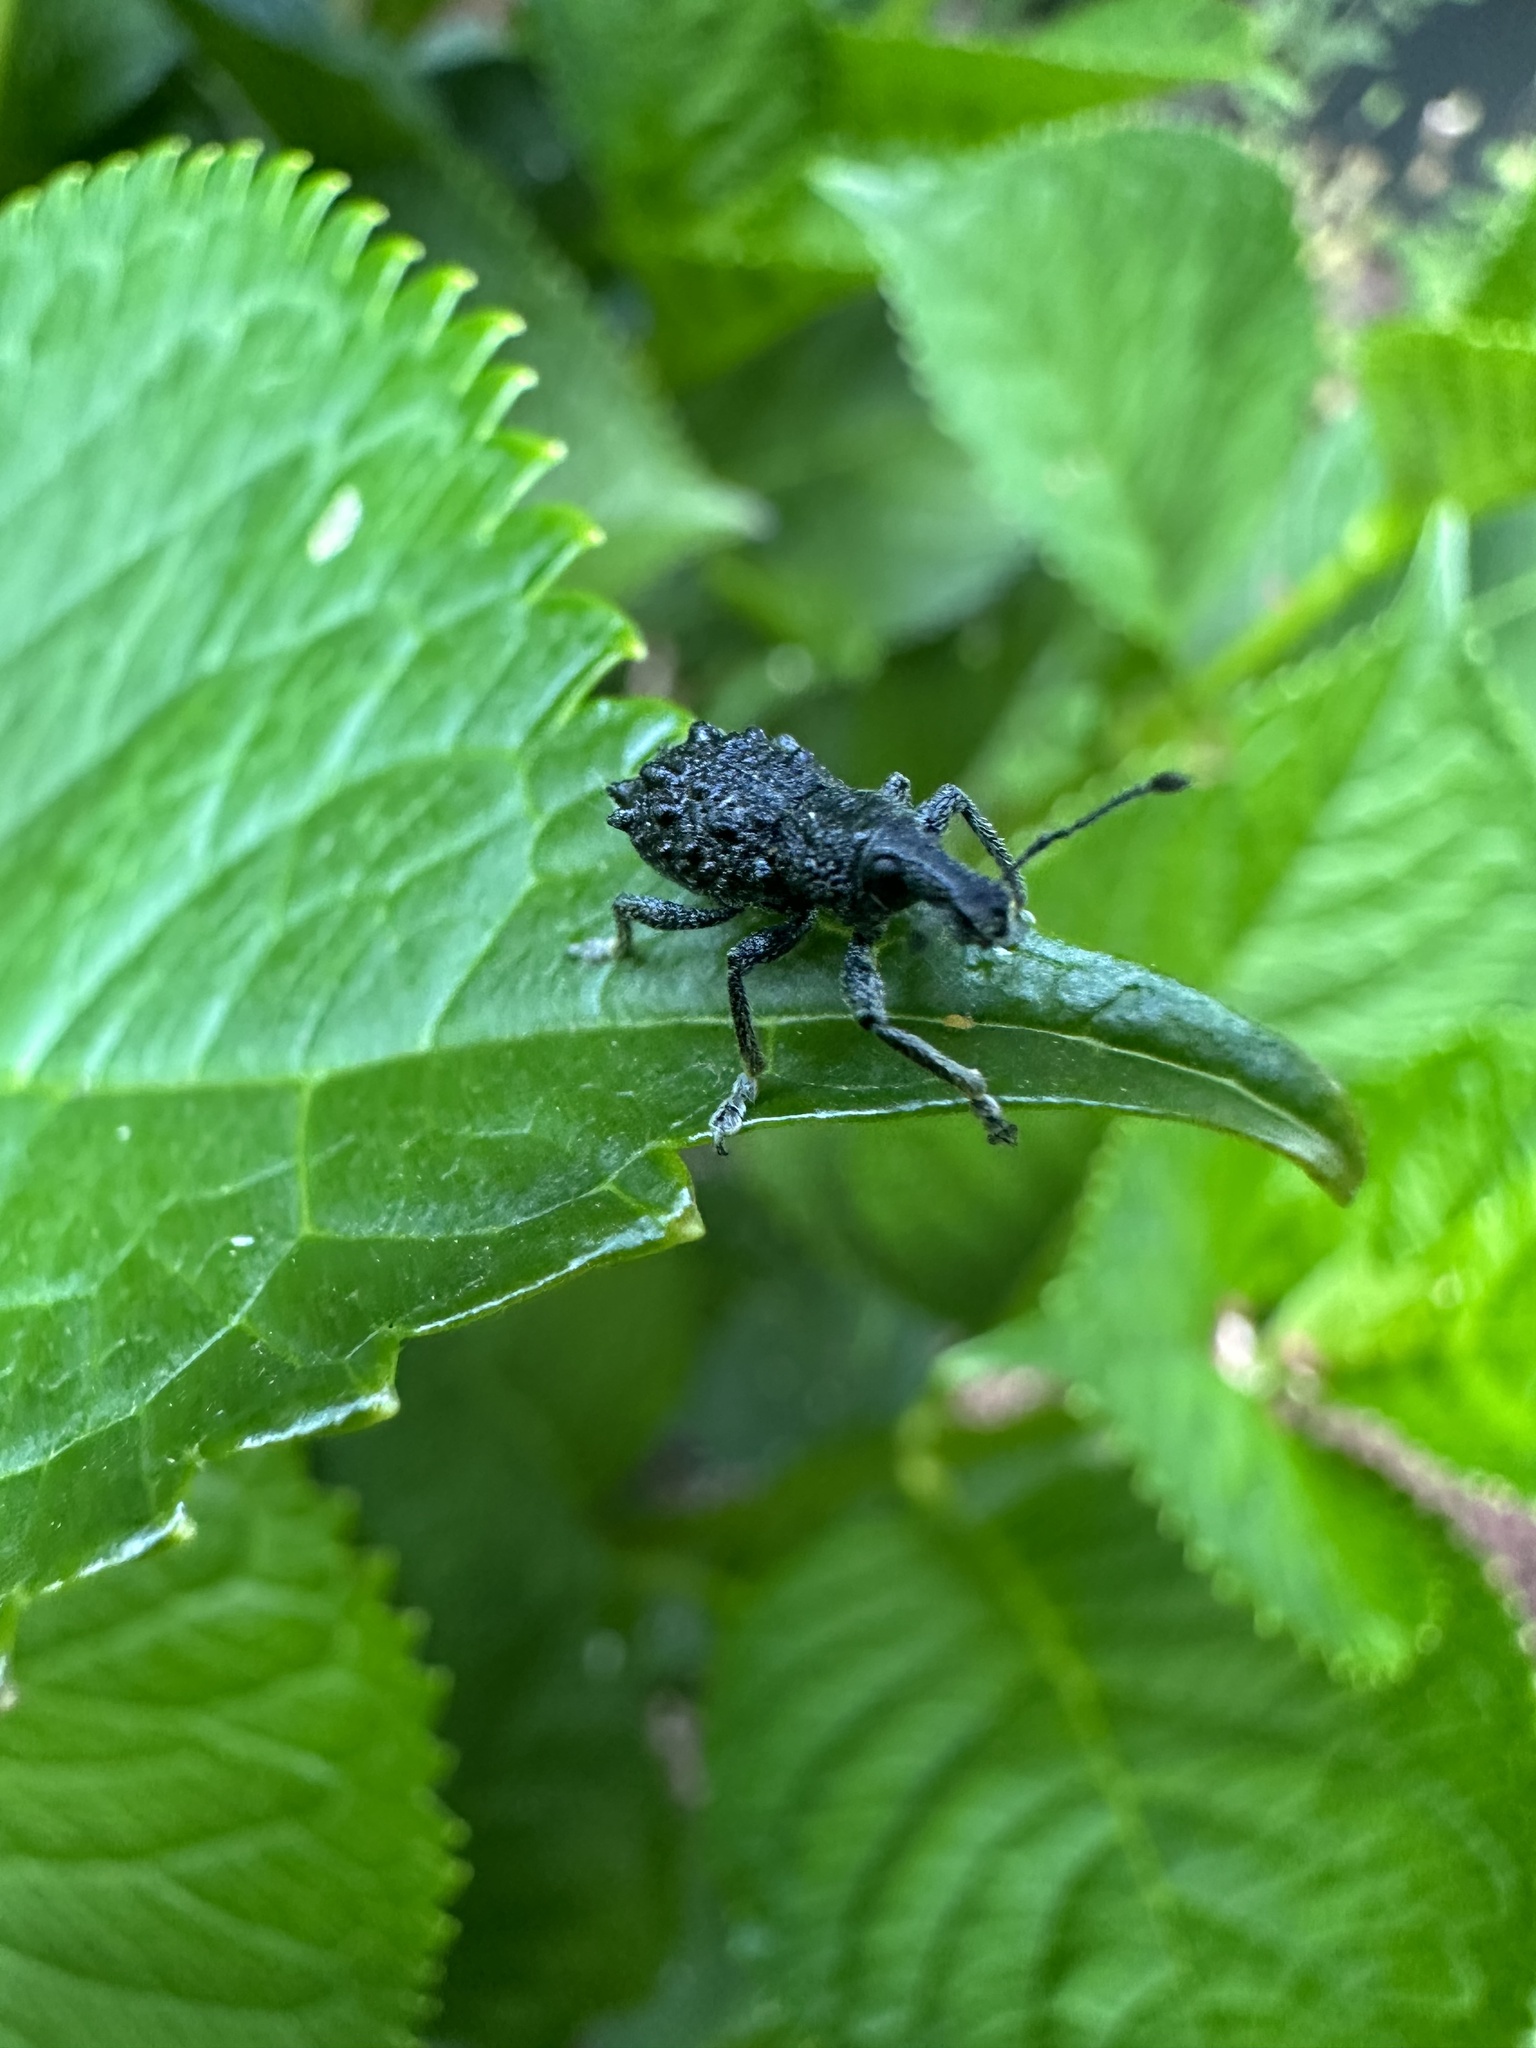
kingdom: Animalia
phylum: Arthropoda
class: Insecta
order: Coleoptera
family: Curculionidae
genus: Megalometis
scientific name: Megalometis spiniferus
